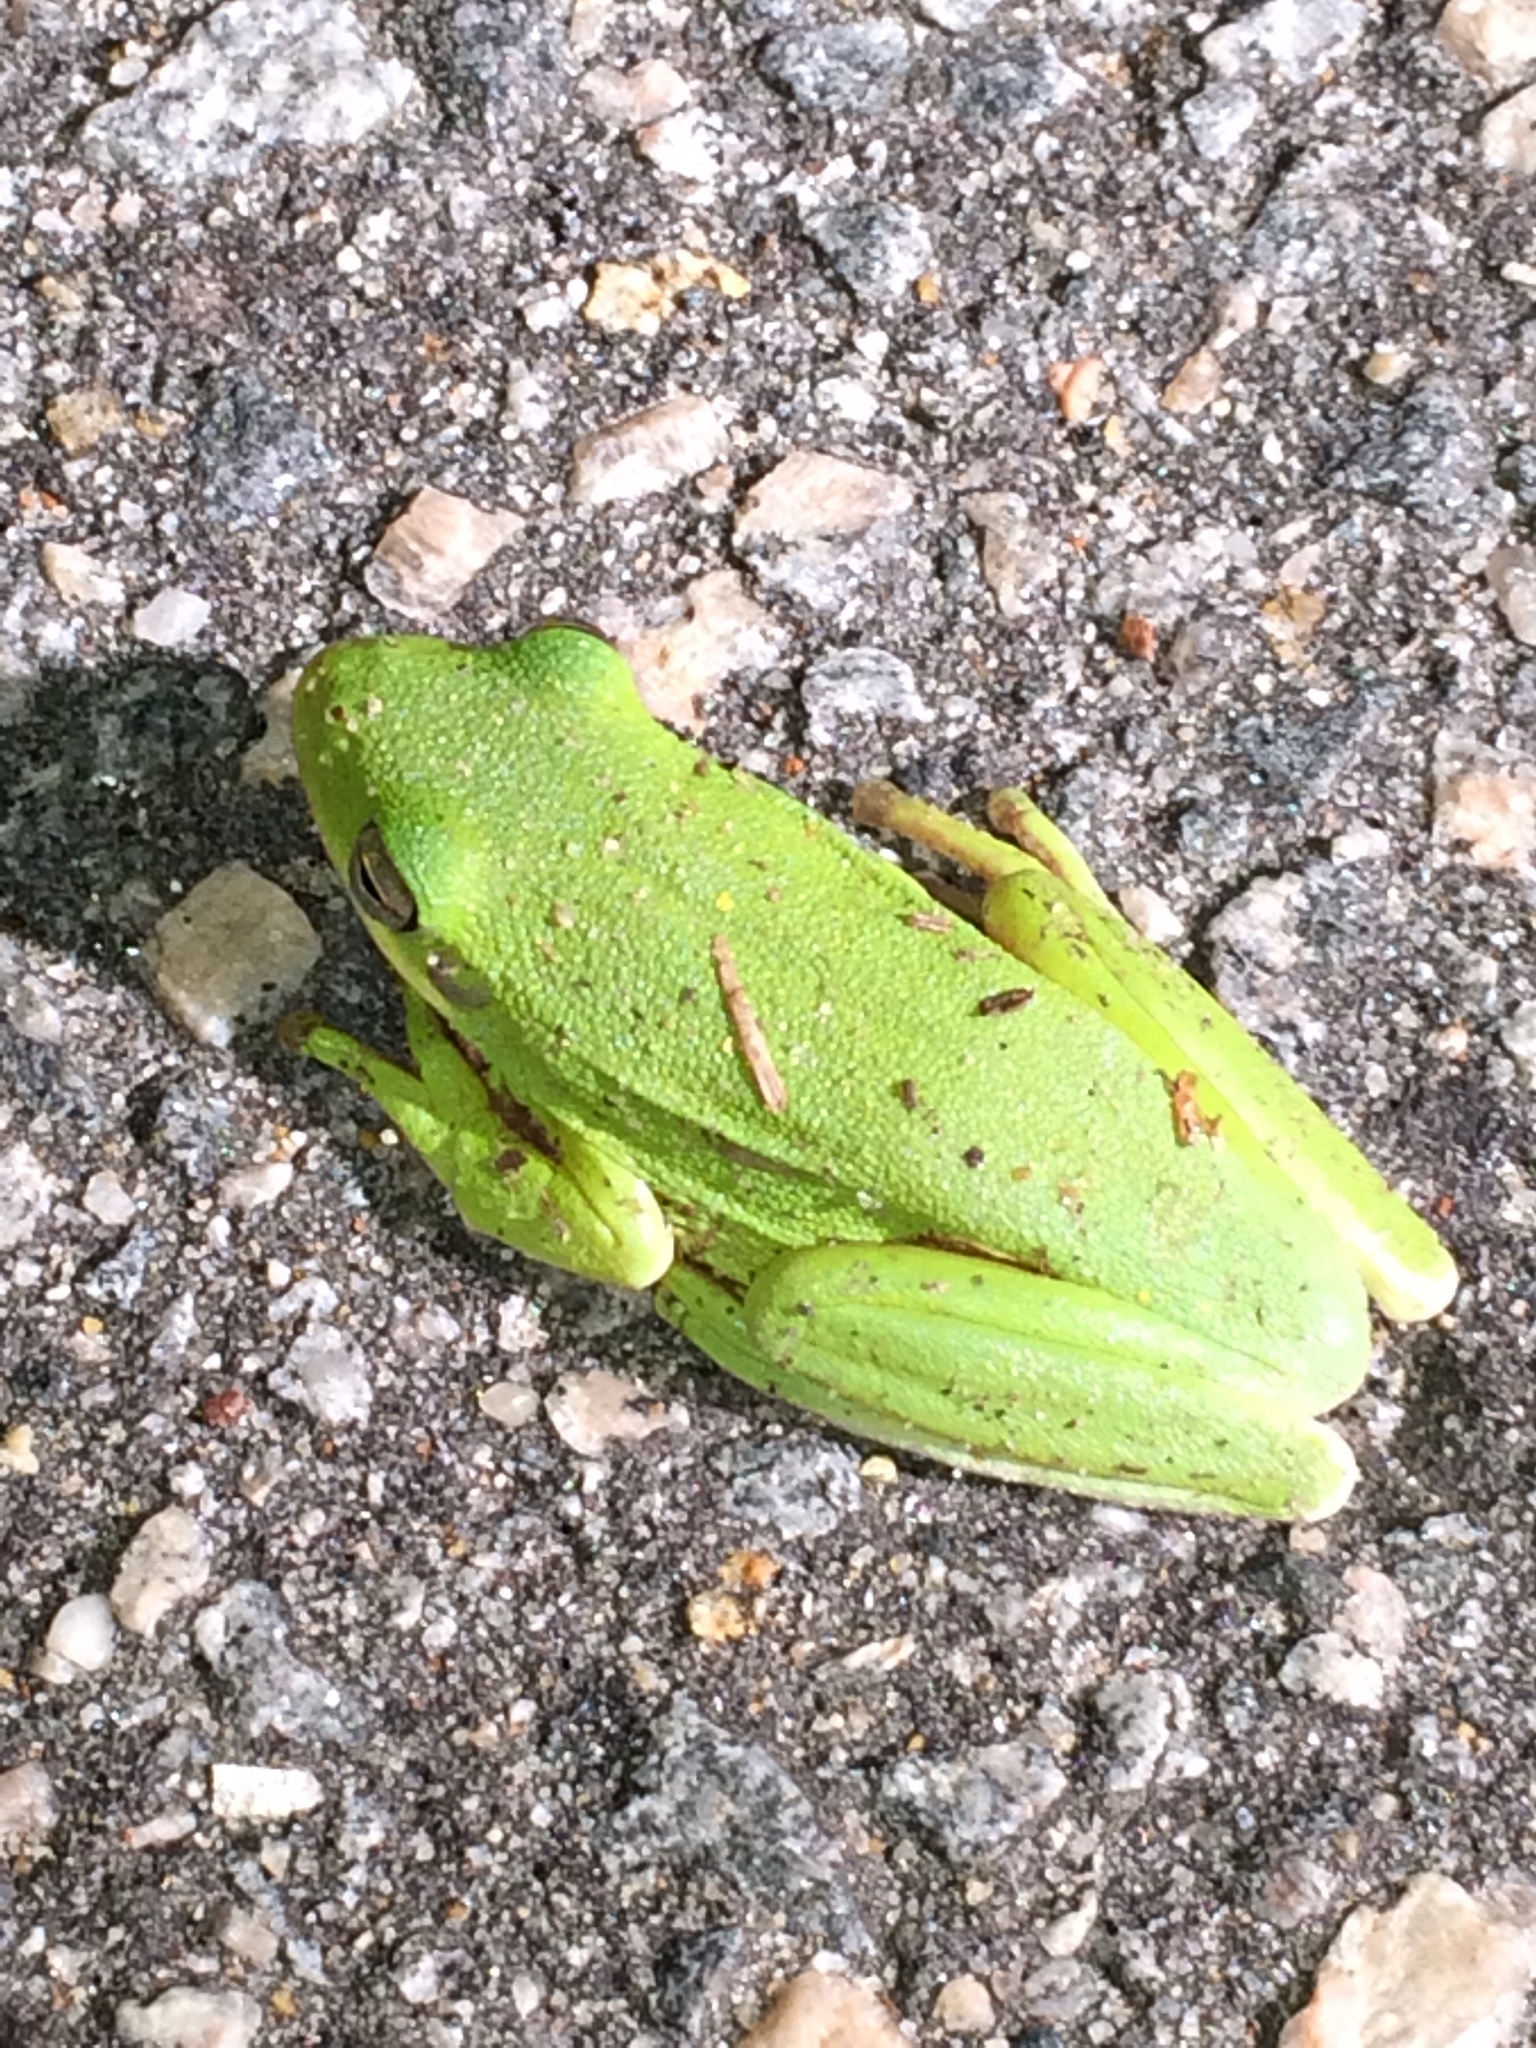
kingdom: Animalia
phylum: Chordata
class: Amphibia
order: Anura
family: Hylidae
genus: Dryophytes
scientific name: Dryophytes cinereus
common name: Green treefrog
